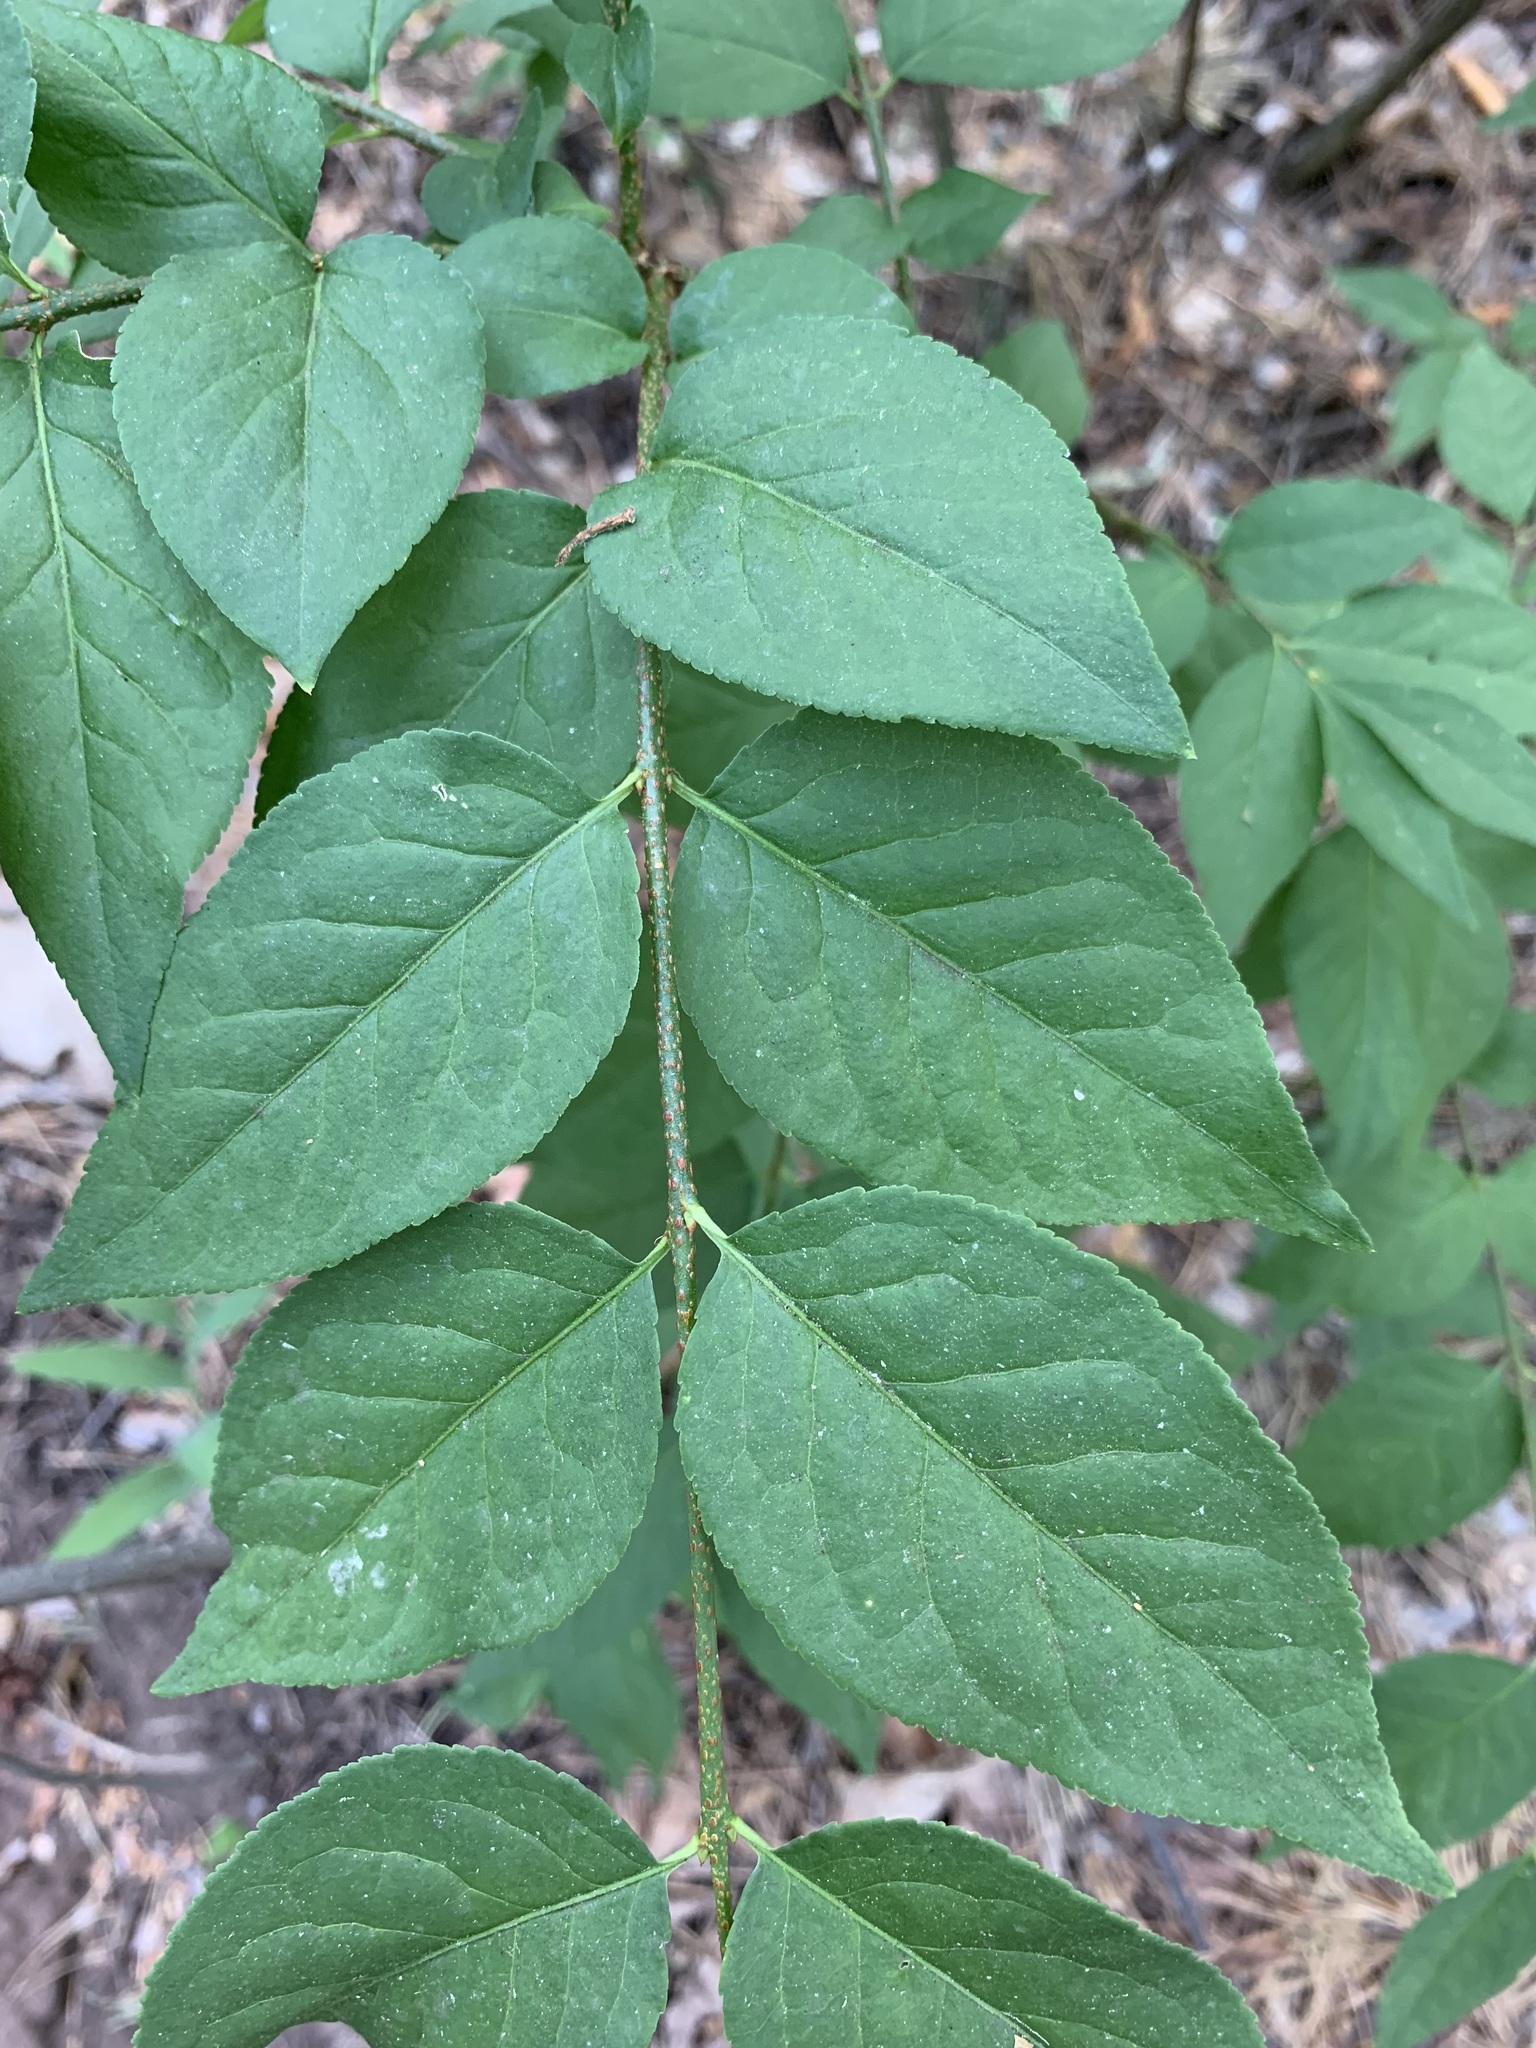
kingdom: Plantae
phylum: Tracheophyta
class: Magnoliopsida
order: Celastrales
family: Celastraceae
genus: Euonymus
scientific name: Euonymus verrucosus
